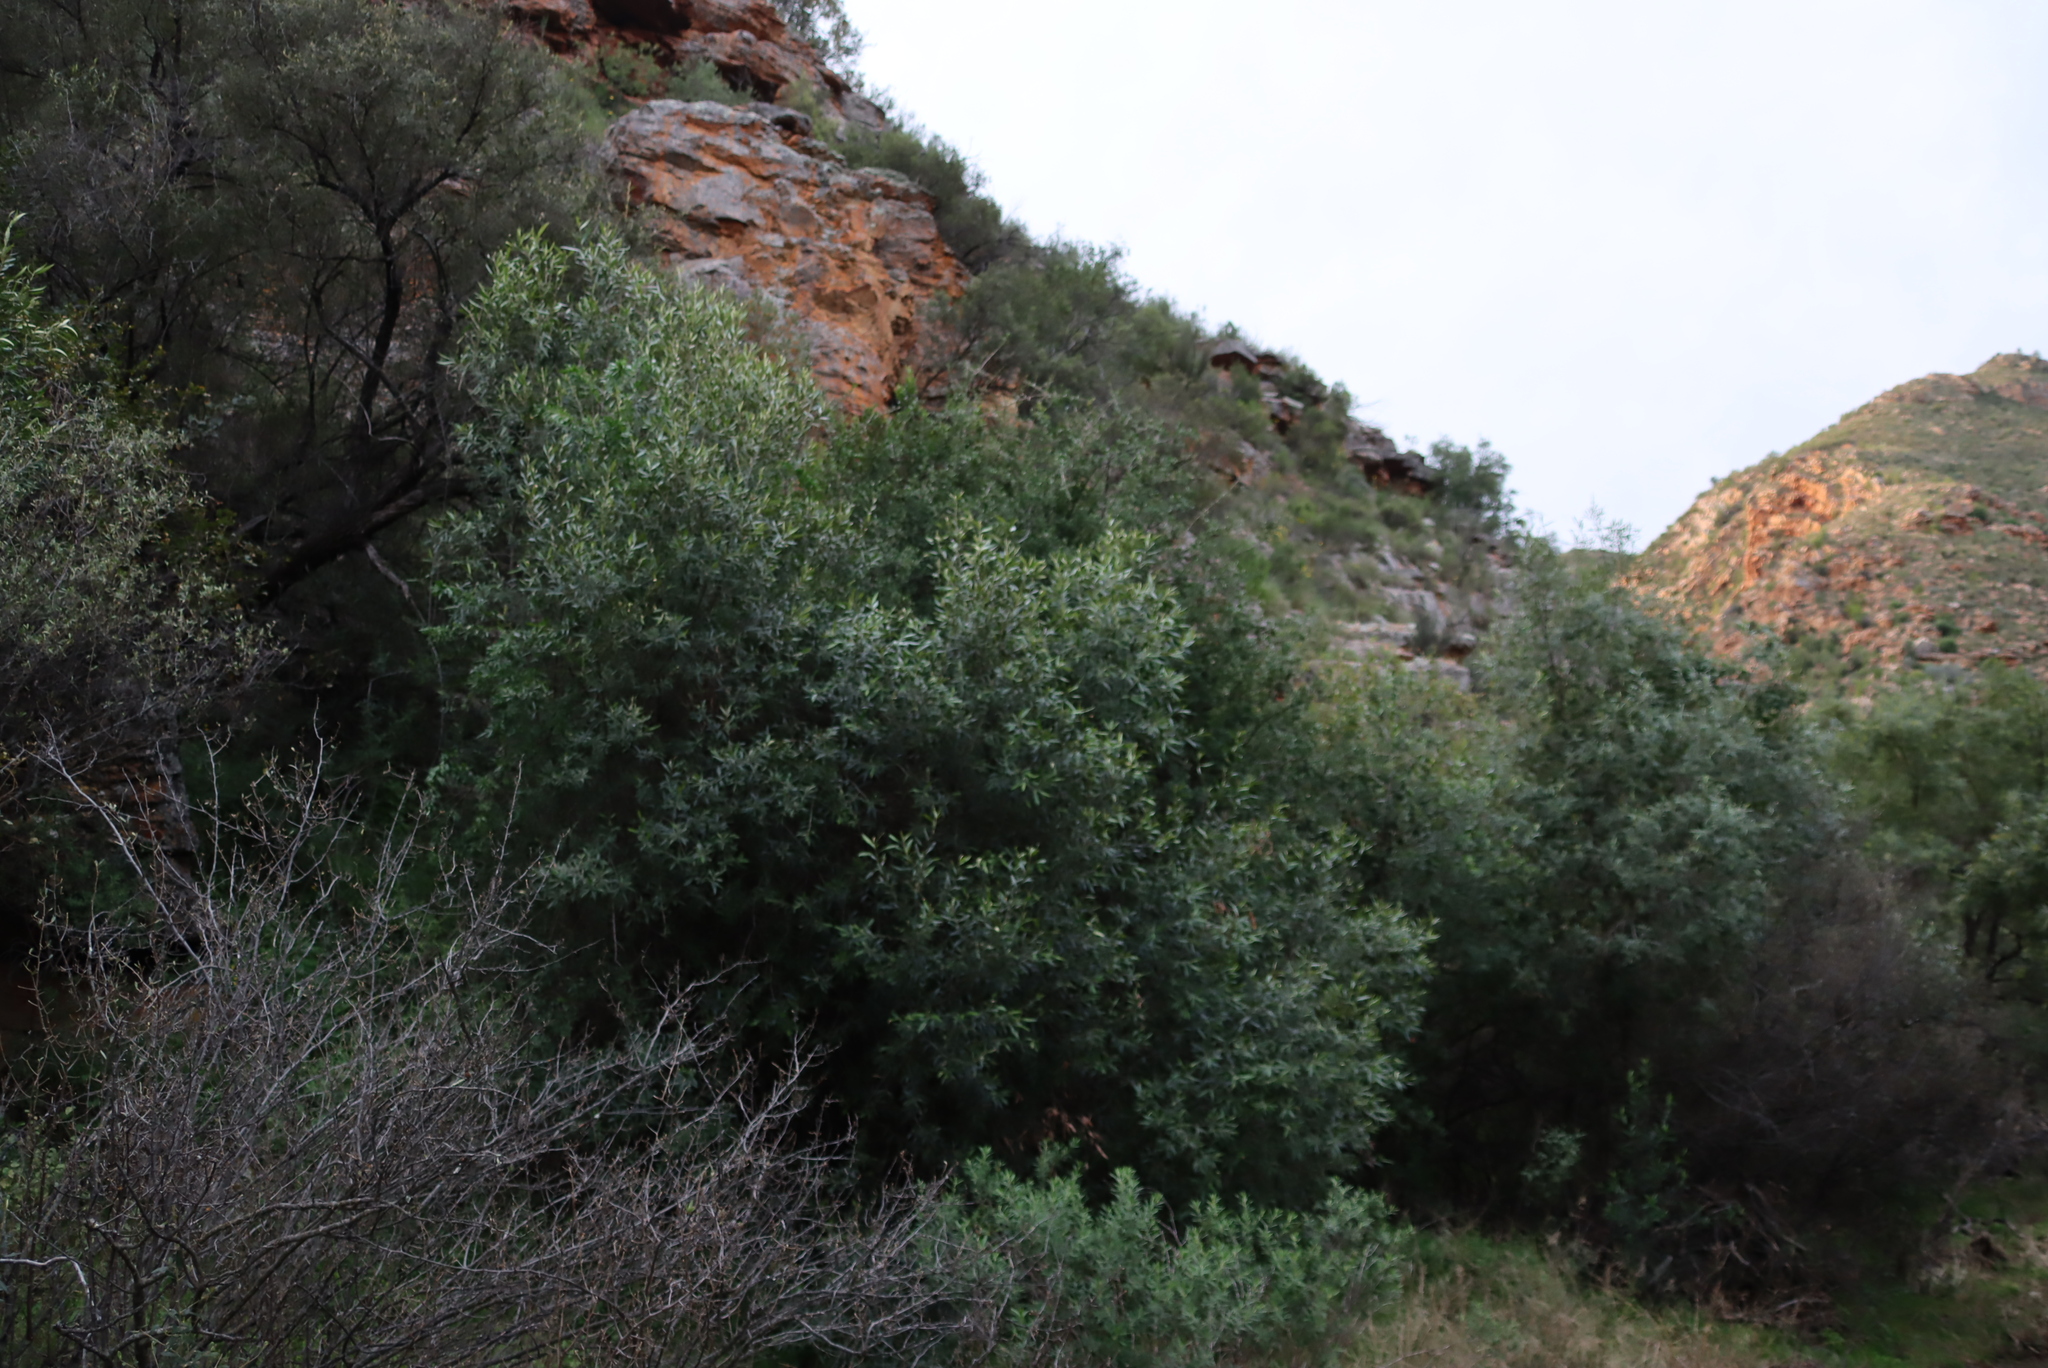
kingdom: Plantae
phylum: Tracheophyta
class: Magnoliopsida
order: Sapindales
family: Anacardiaceae
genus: Searsia
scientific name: Searsia lancea
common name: Cashew
